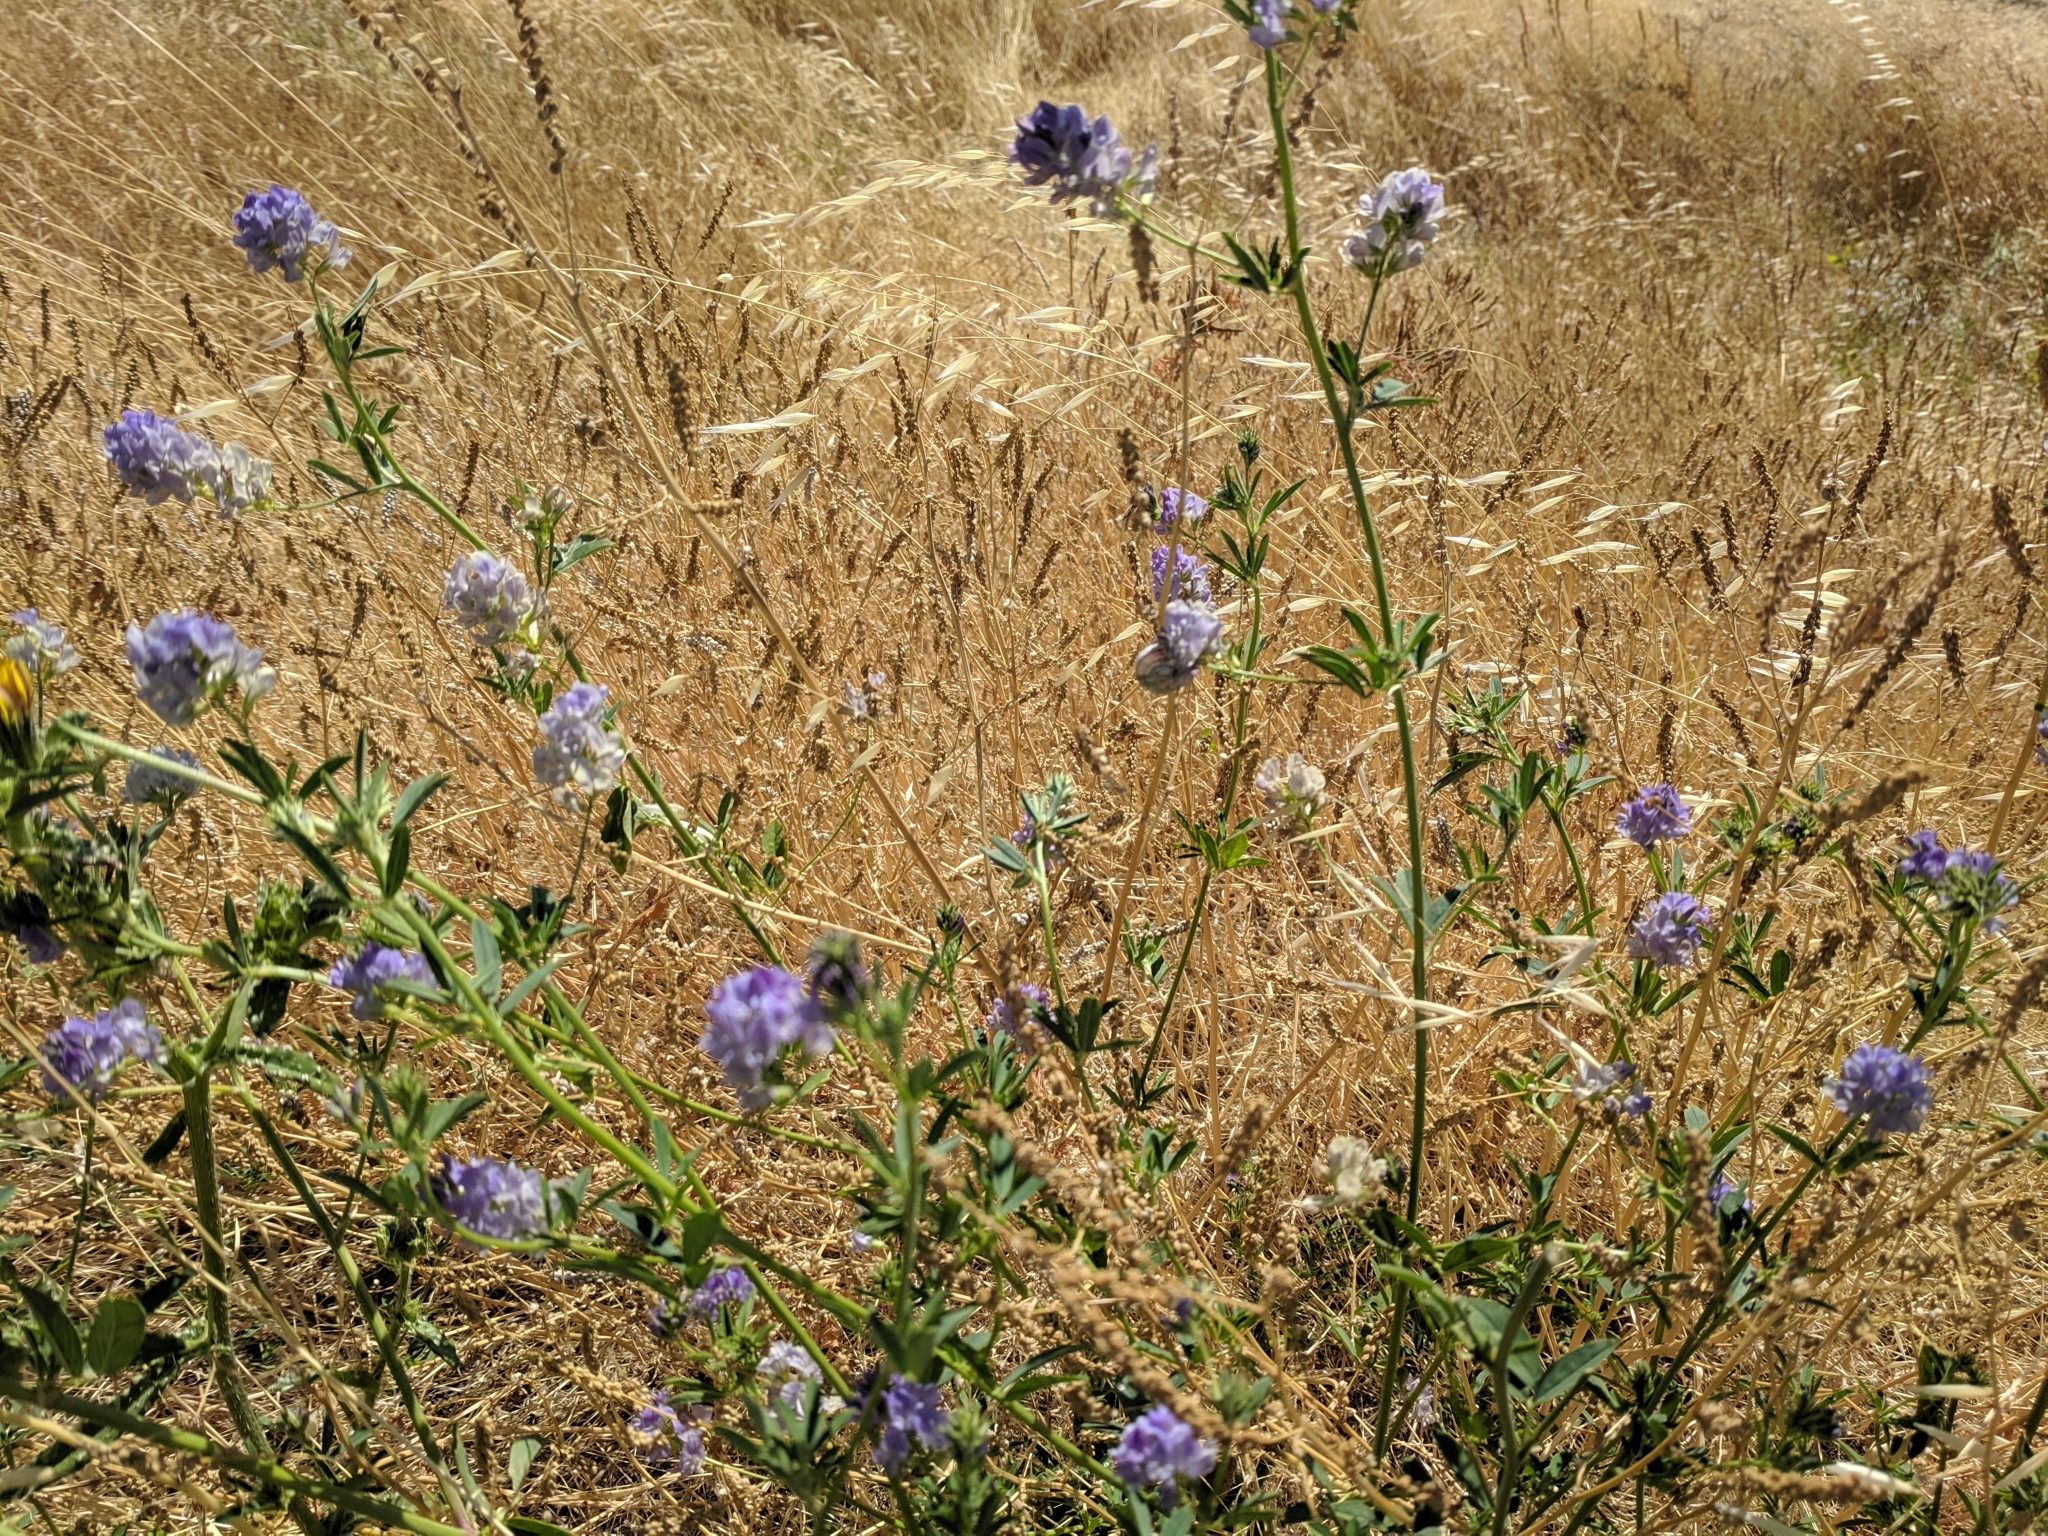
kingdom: Plantae
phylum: Tracheophyta
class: Magnoliopsida
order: Fabales
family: Fabaceae
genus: Medicago
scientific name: Medicago sativa
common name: Alfalfa
